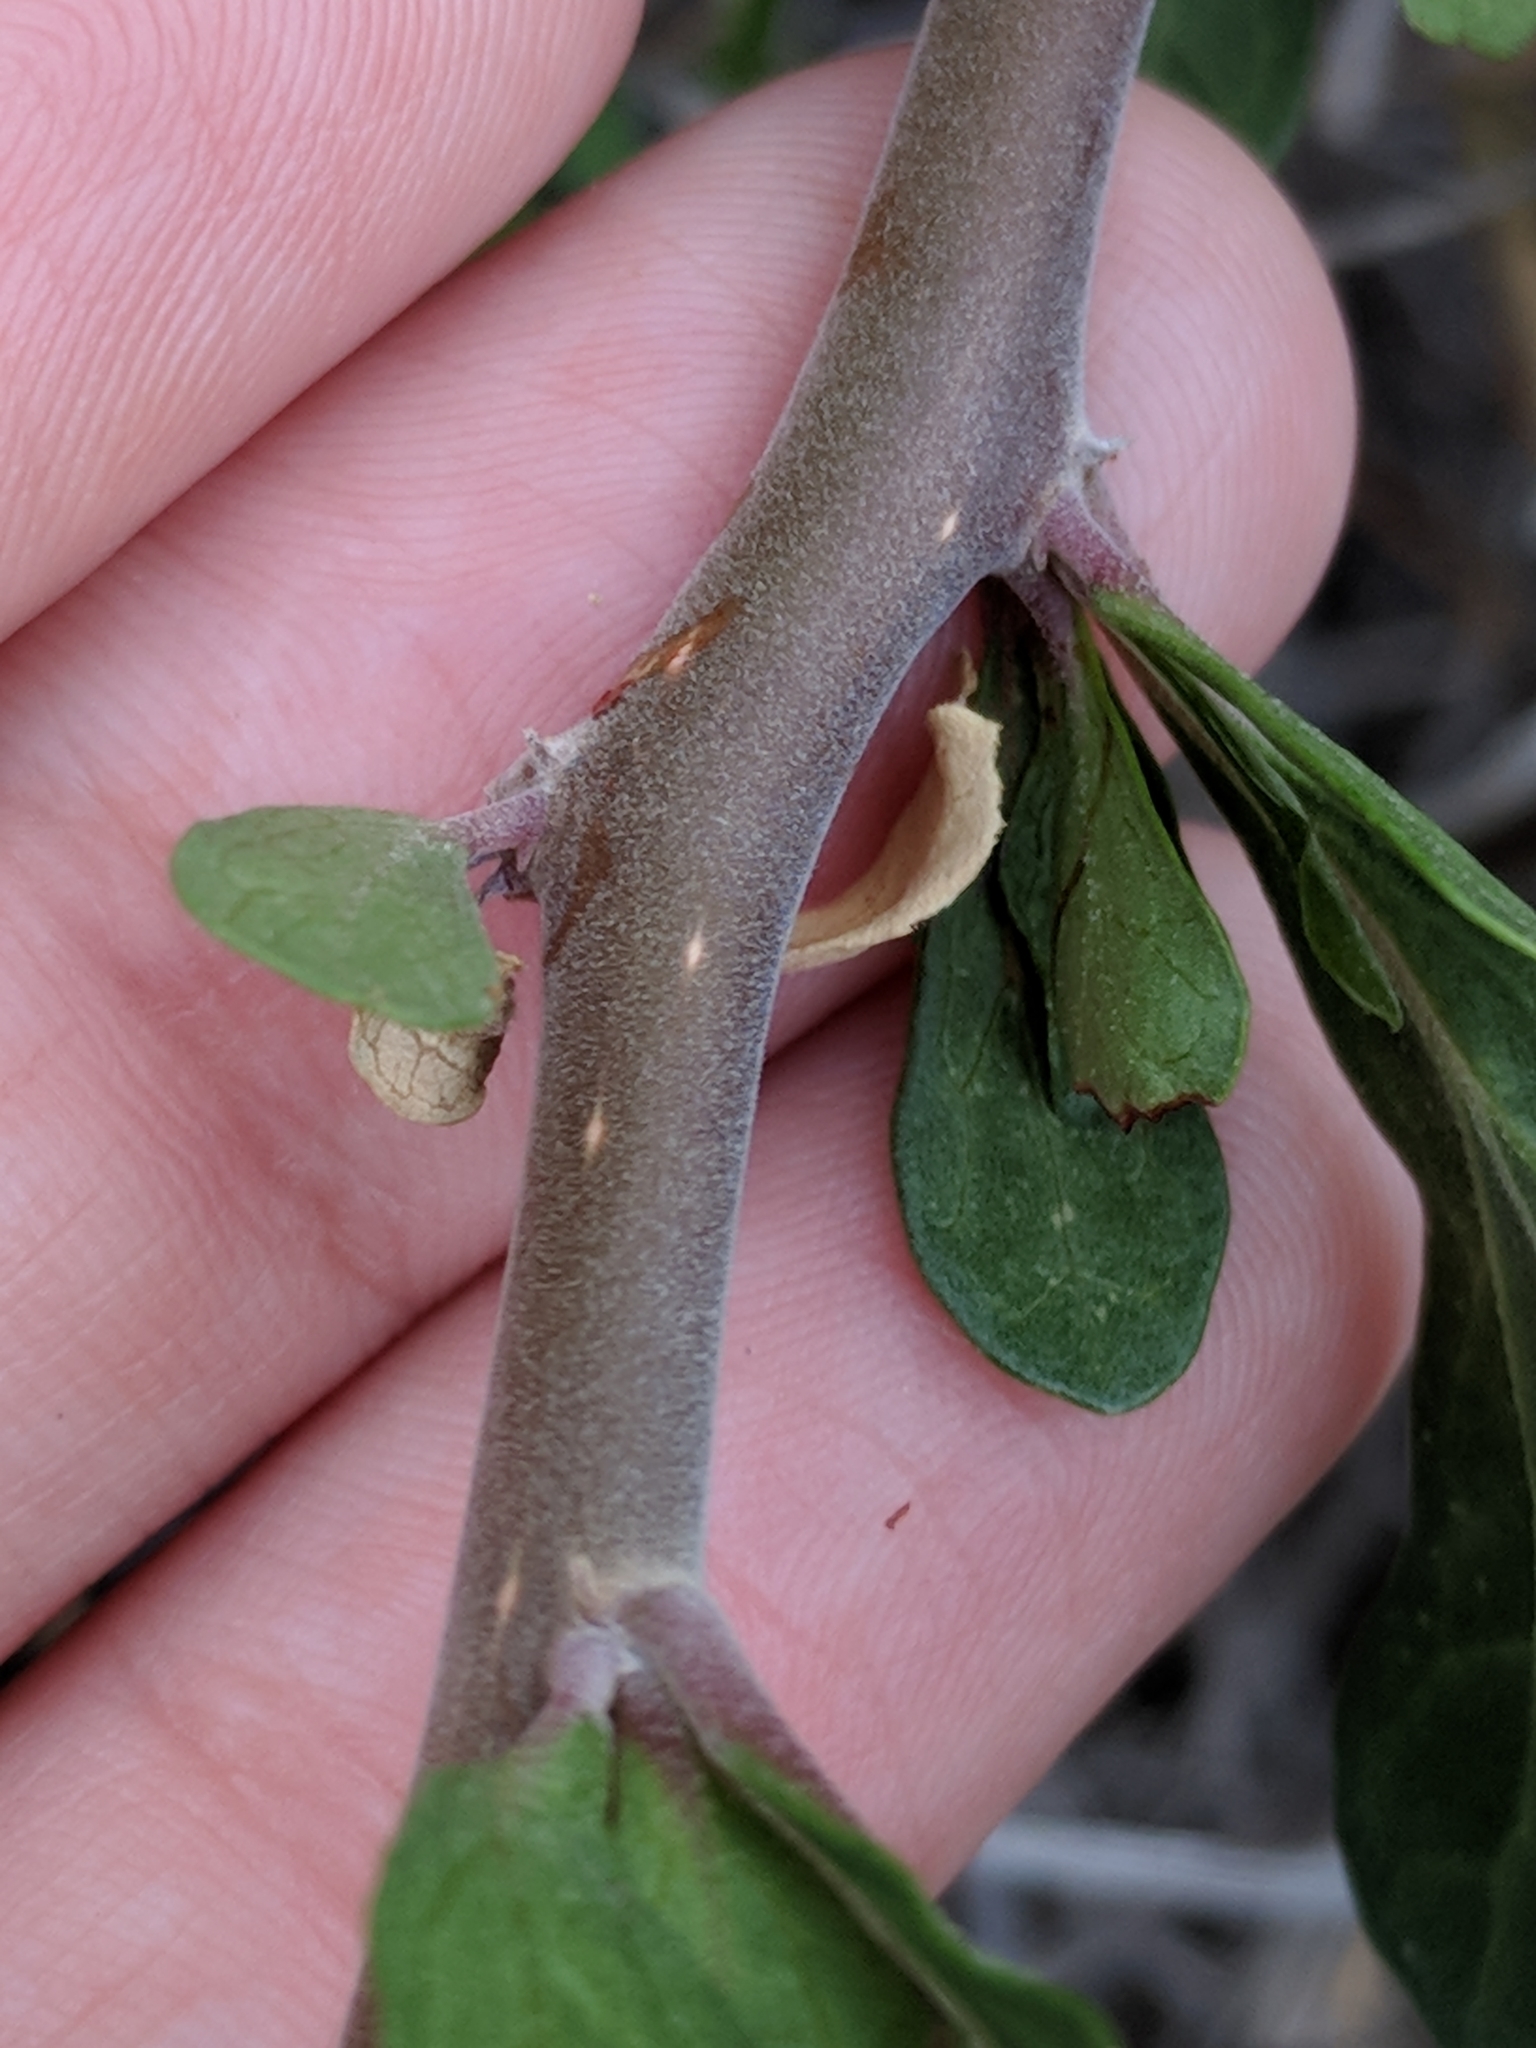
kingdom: Plantae
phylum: Tracheophyta
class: Magnoliopsida
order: Malpighiales
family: Euphorbiaceae
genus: Jatropha
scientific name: Jatropha dioica
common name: Leatherstem
